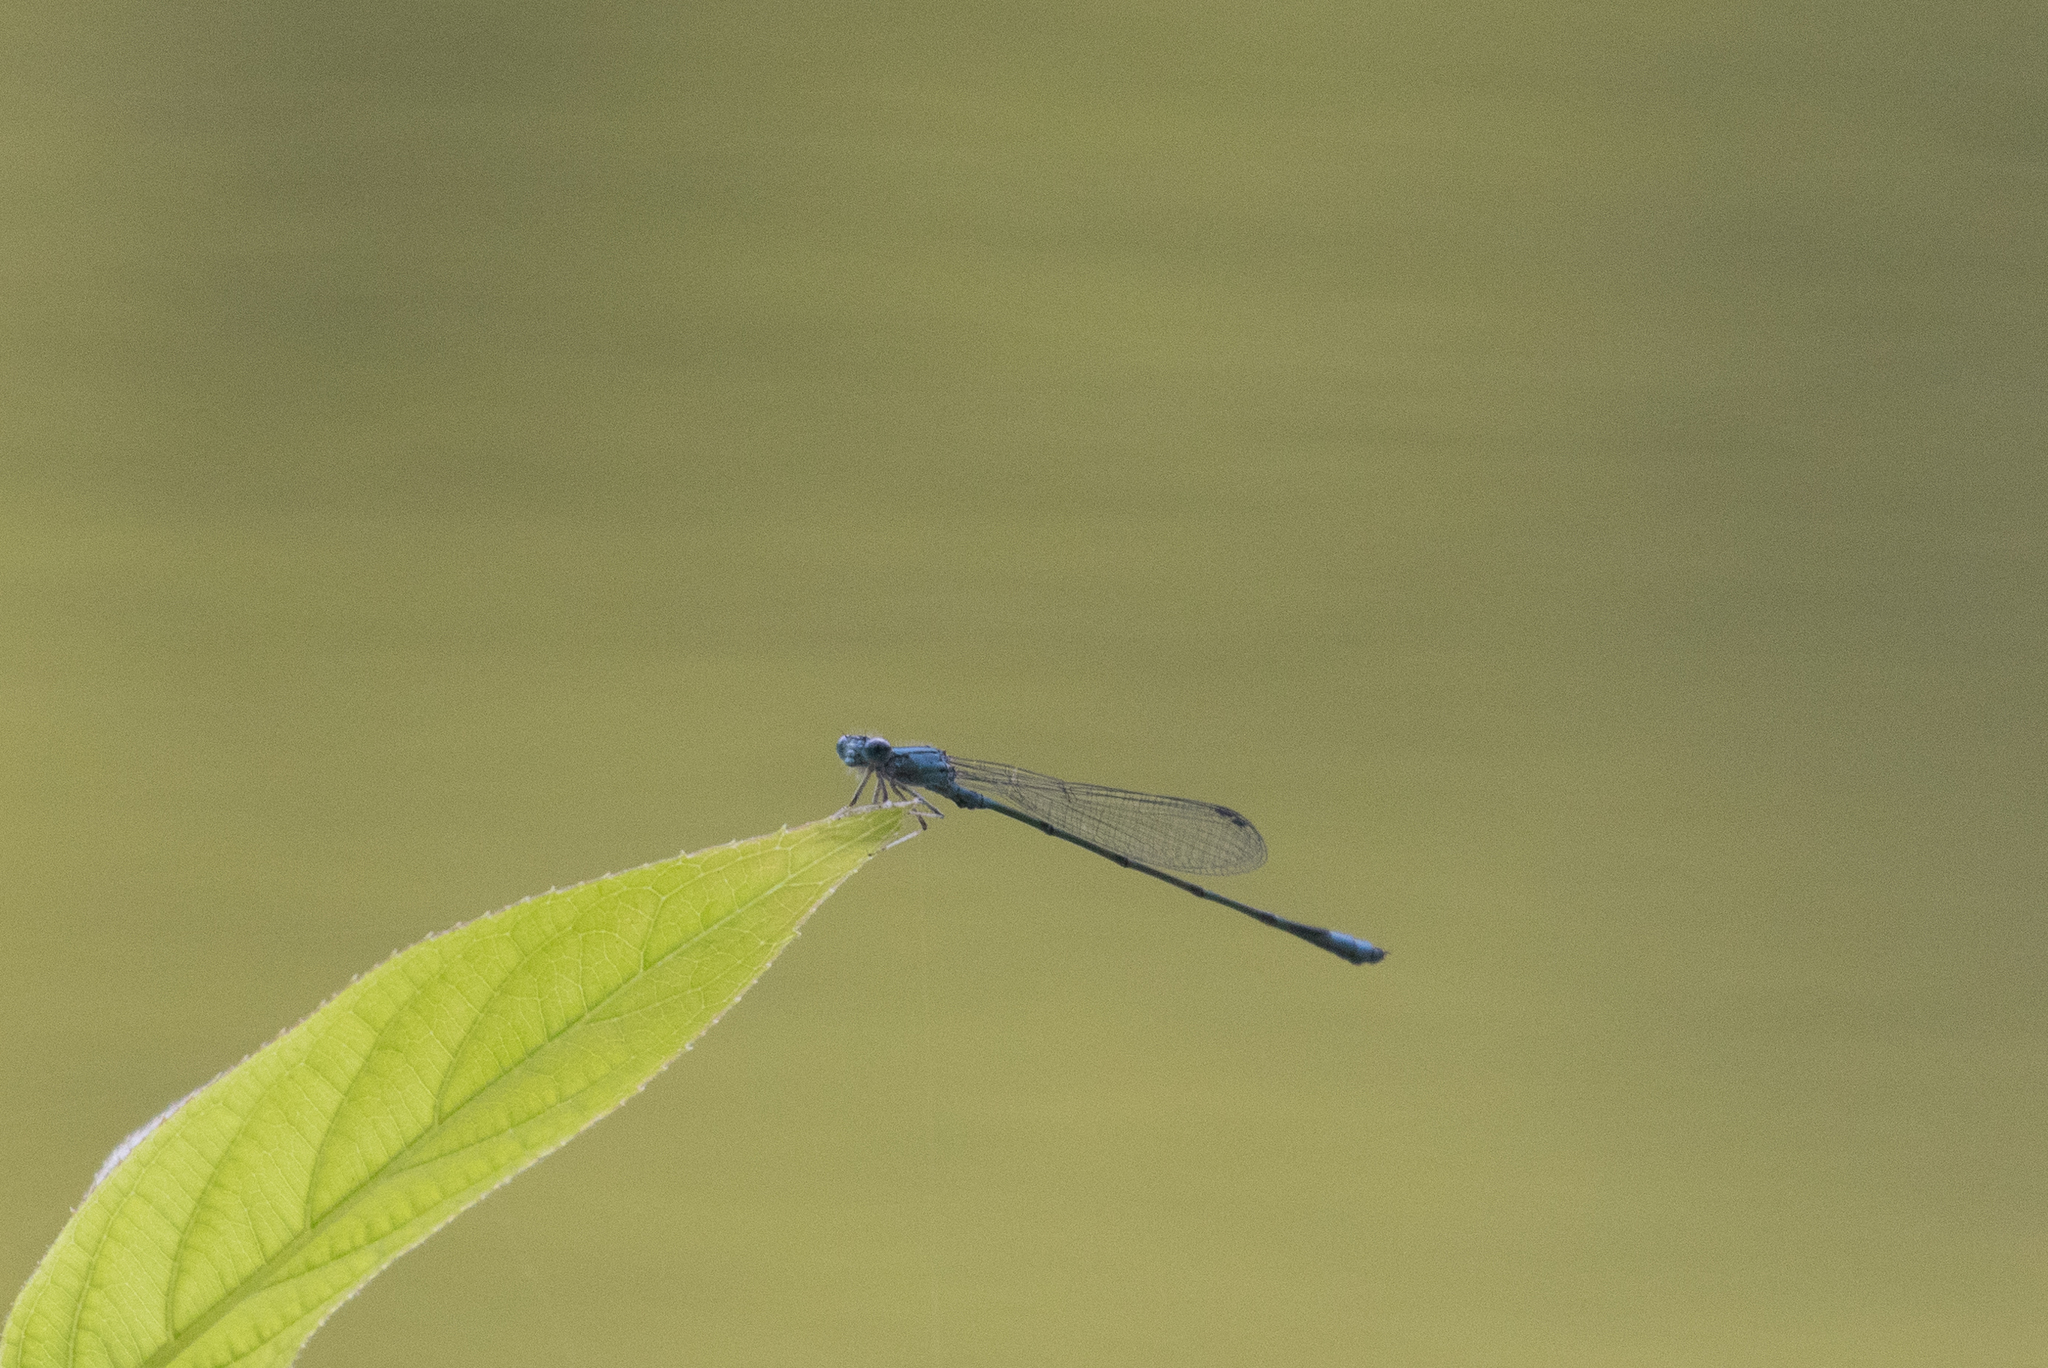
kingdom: Animalia
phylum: Arthropoda
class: Insecta
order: Odonata
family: Coenagrionidae
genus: Enallagma
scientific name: Enallagma traviatum
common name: Slender bluet
